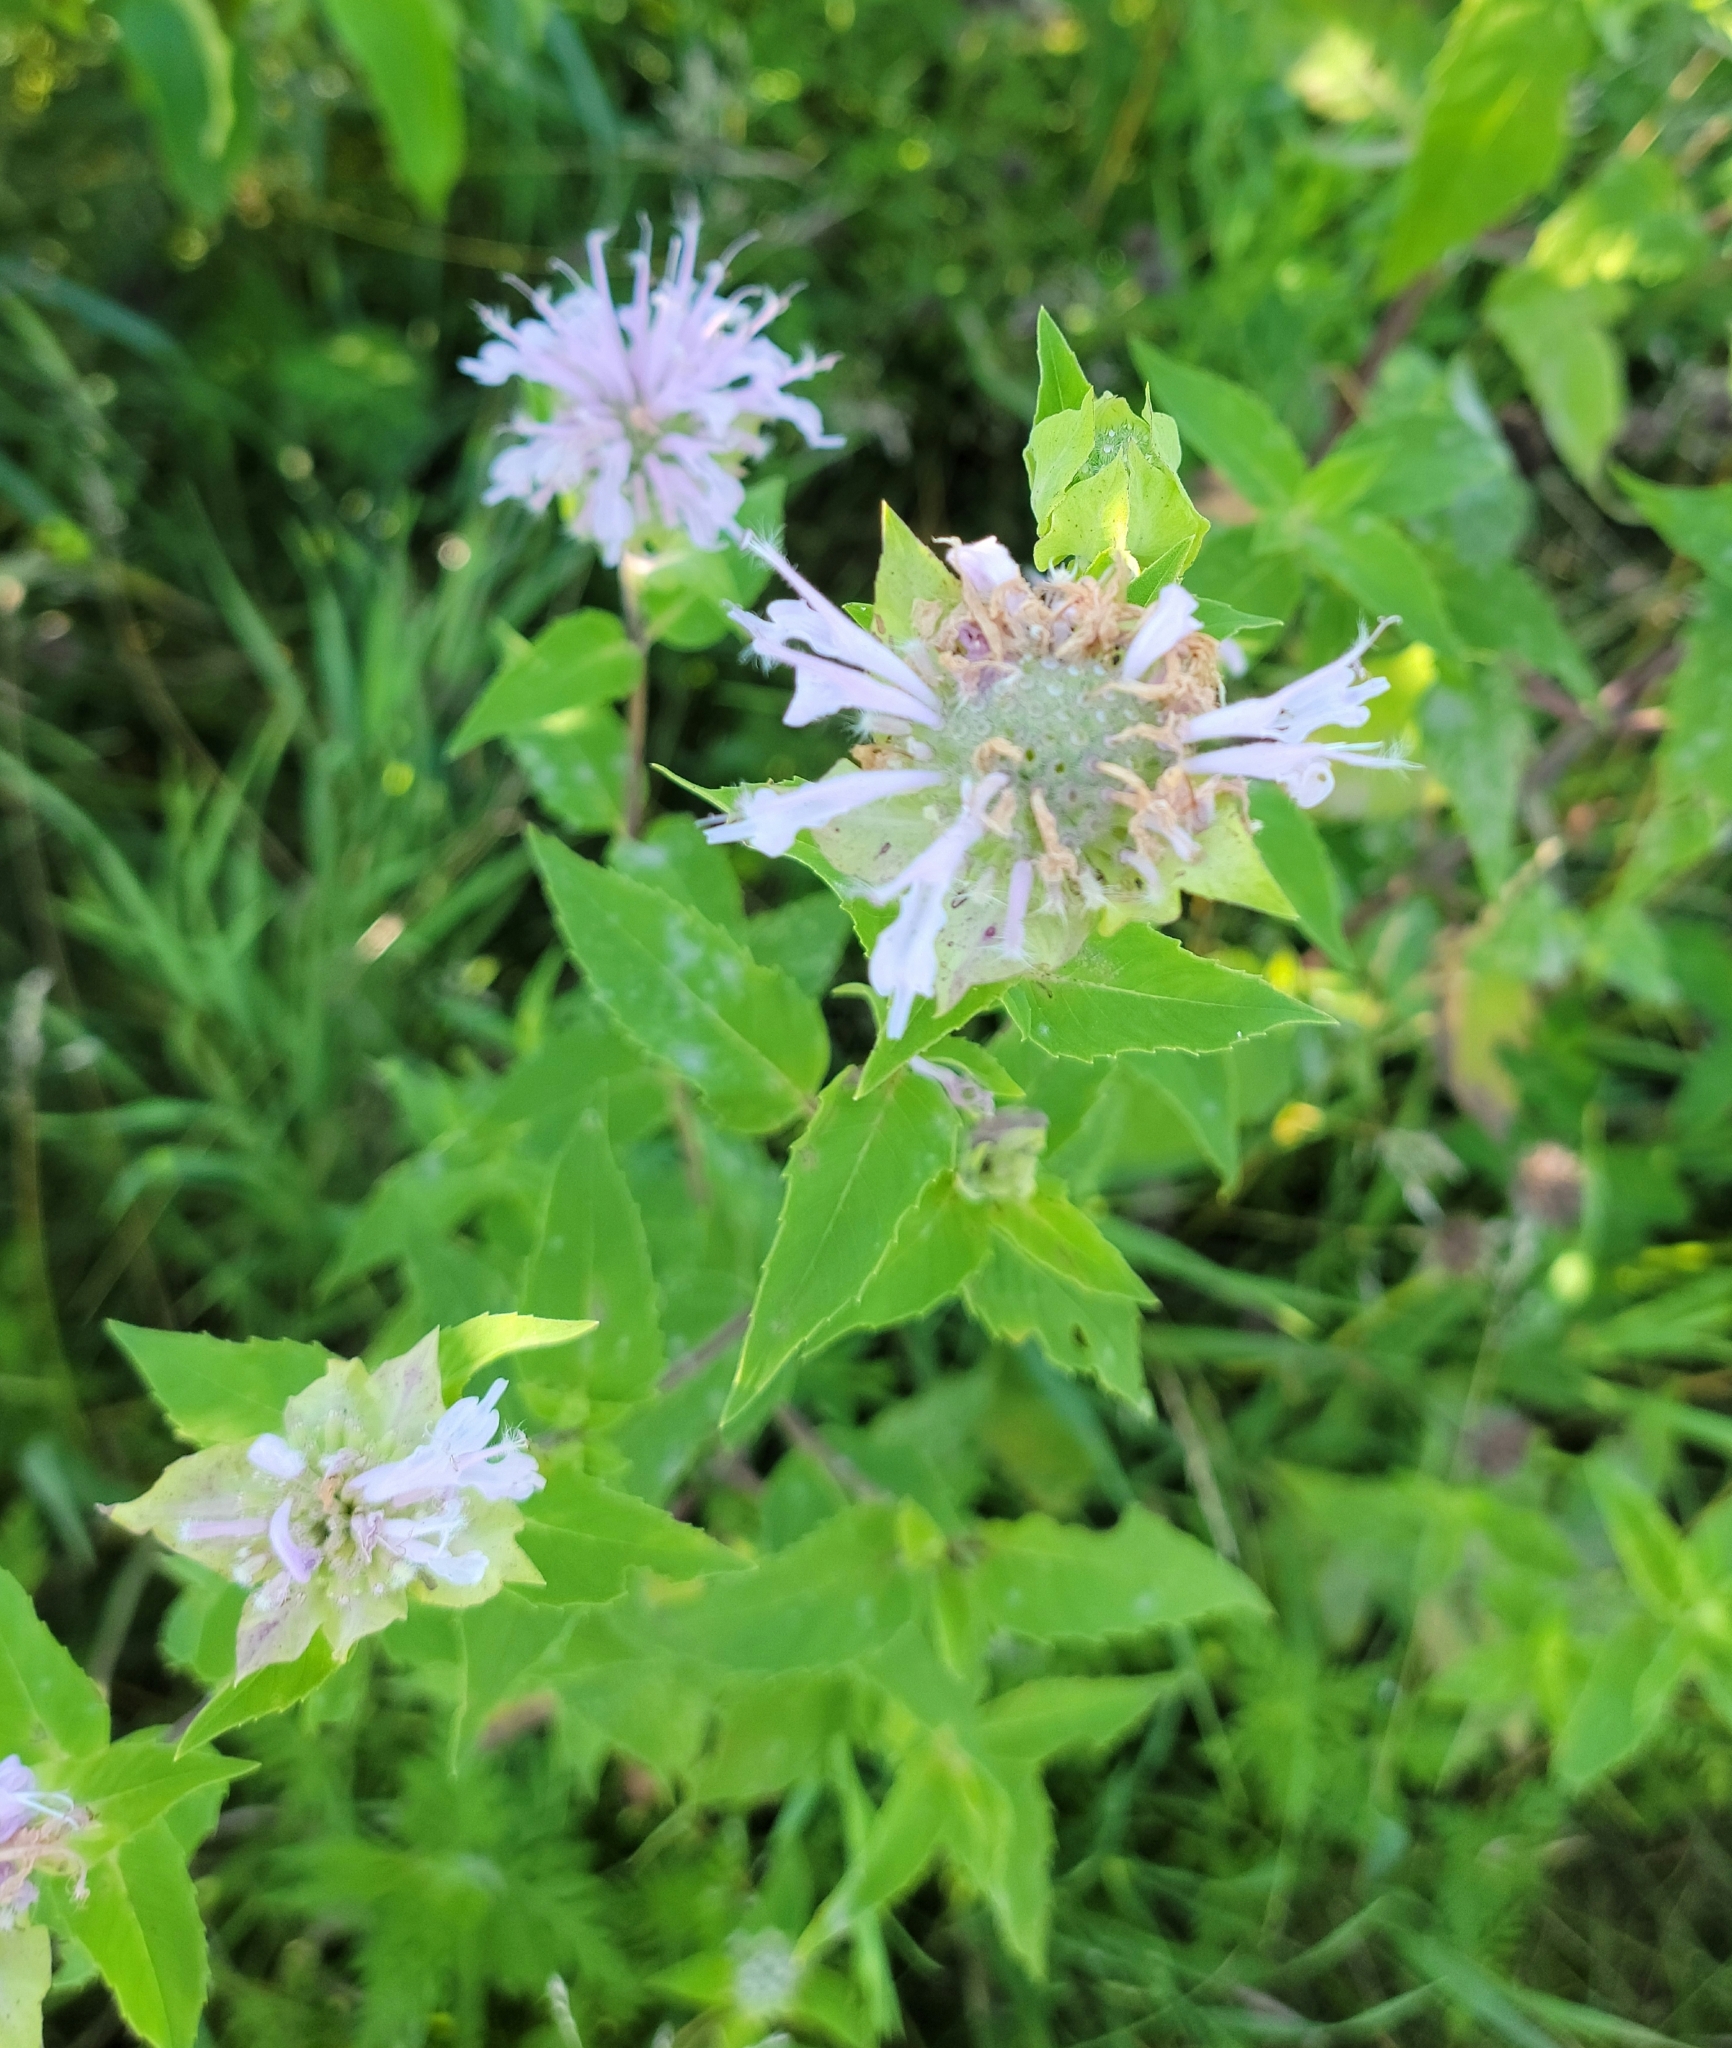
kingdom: Plantae
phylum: Tracheophyta
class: Magnoliopsida
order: Lamiales
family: Lamiaceae
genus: Monarda
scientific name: Monarda fistulosa
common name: Purple beebalm
